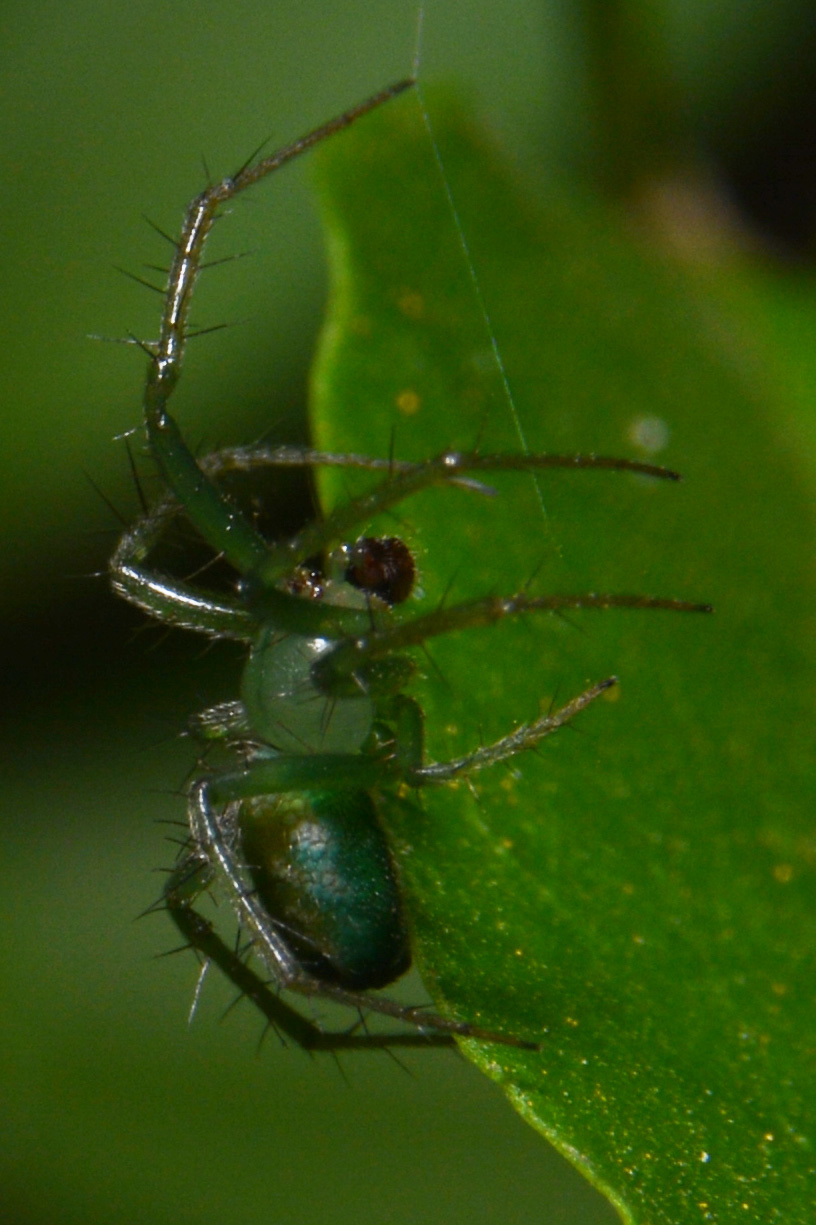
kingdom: Animalia
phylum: Arthropoda
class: Arachnida
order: Araneae
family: Araneidae
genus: Mangora
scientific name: Mangora lactea
